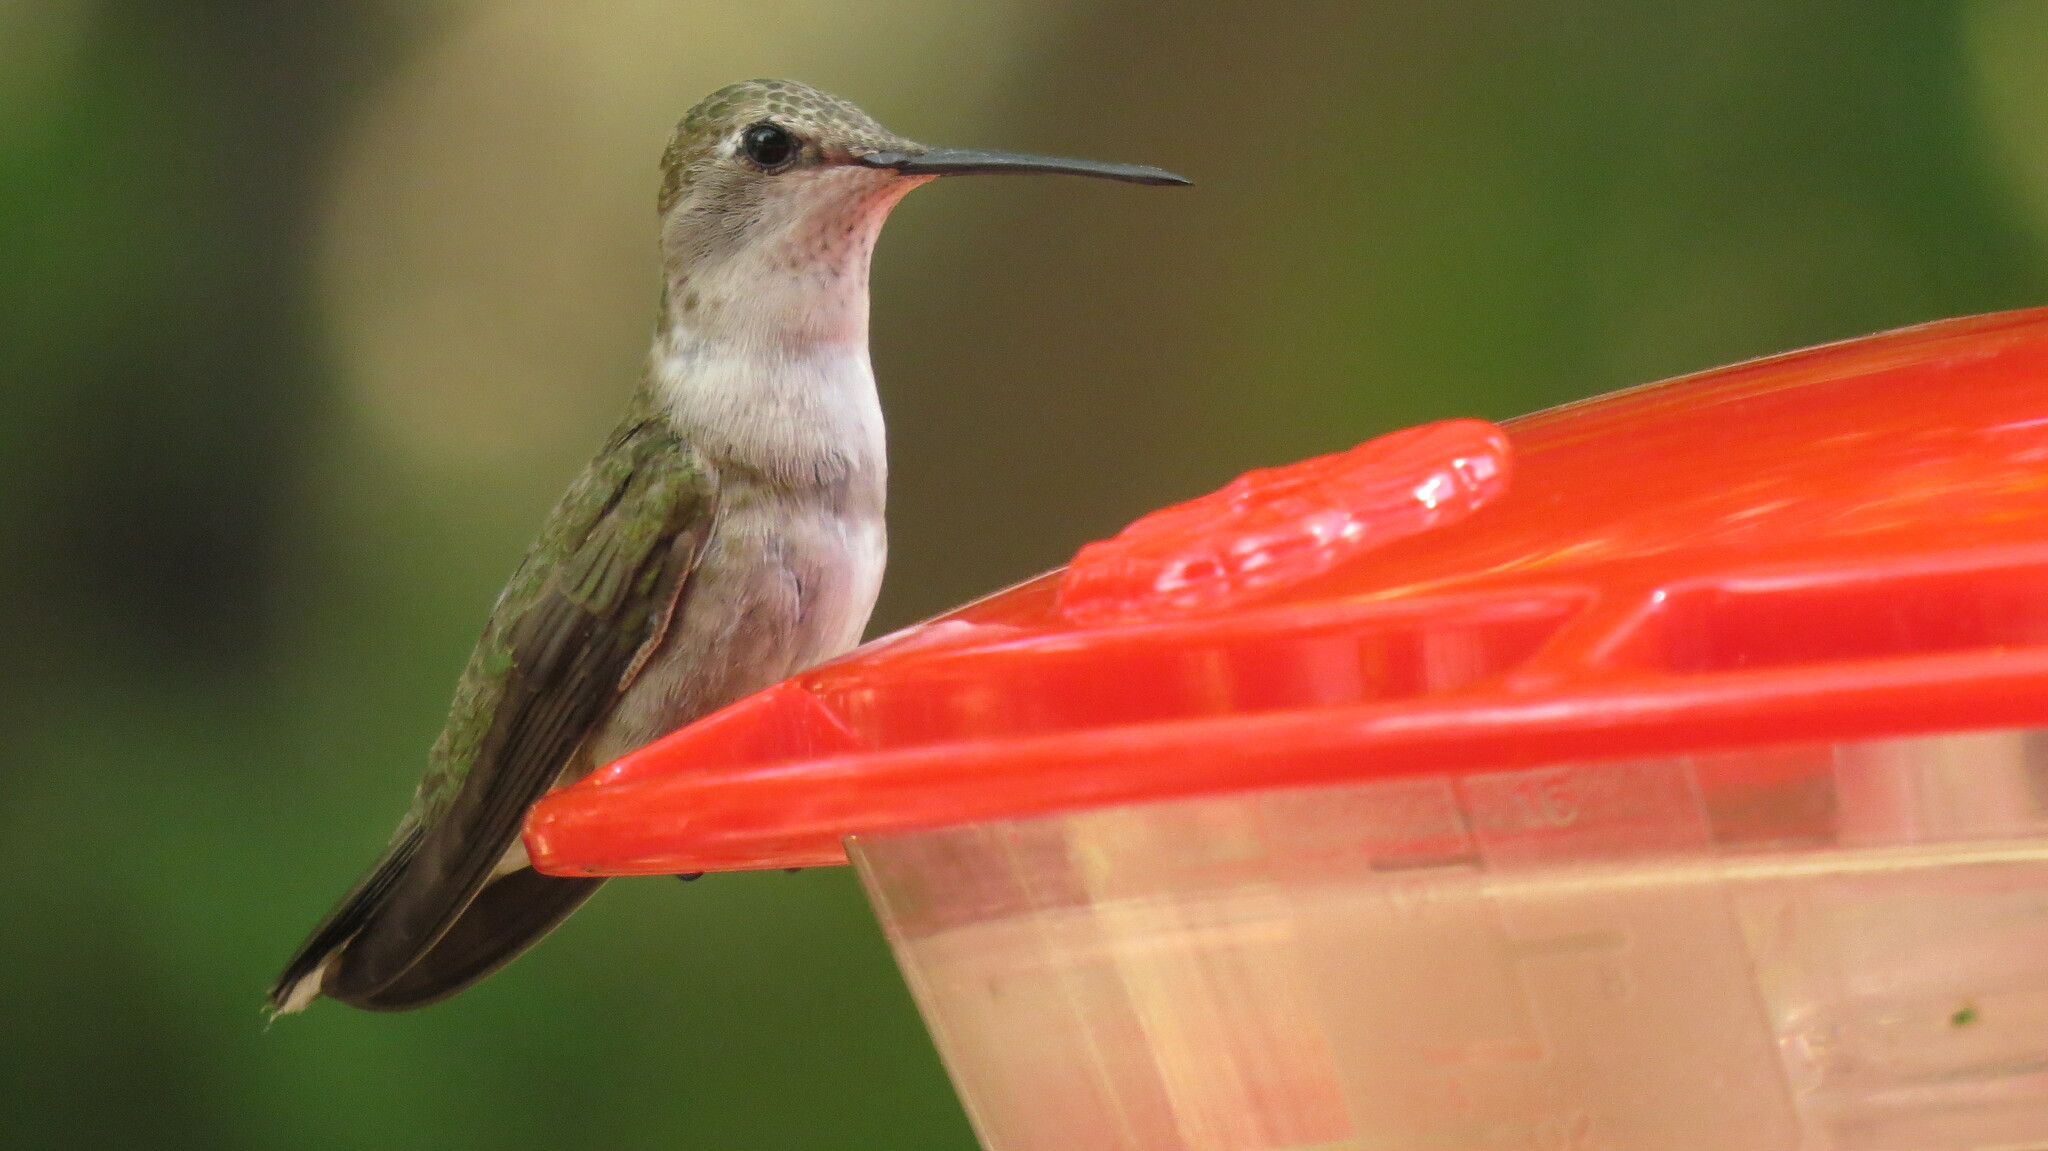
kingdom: Animalia
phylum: Chordata
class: Aves
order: Apodiformes
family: Trochilidae
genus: Archilochus
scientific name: Archilochus alexandri
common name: Black-chinned hummingbird
